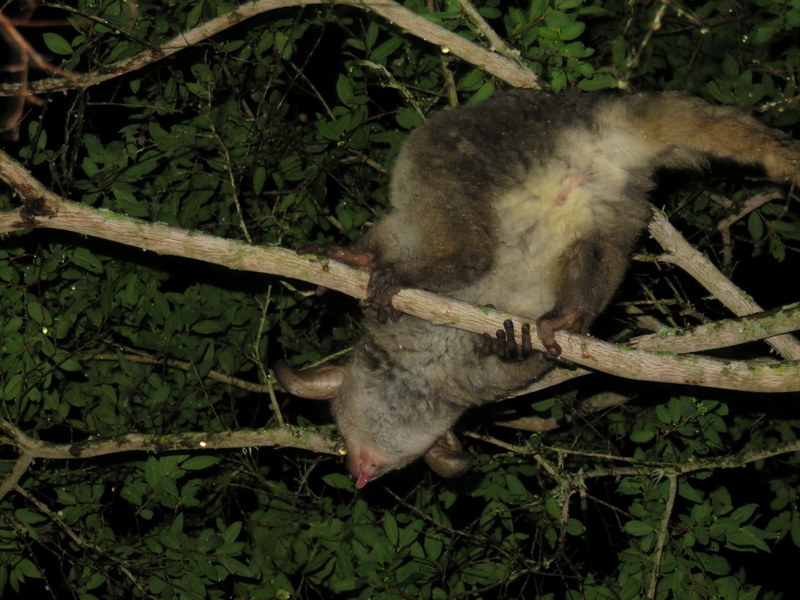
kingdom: Animalia
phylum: Chordata
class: Mammalia
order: Primates
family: Galagidae
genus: Otolemur
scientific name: Otolemur crassicaudatus
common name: Brown greater galago
